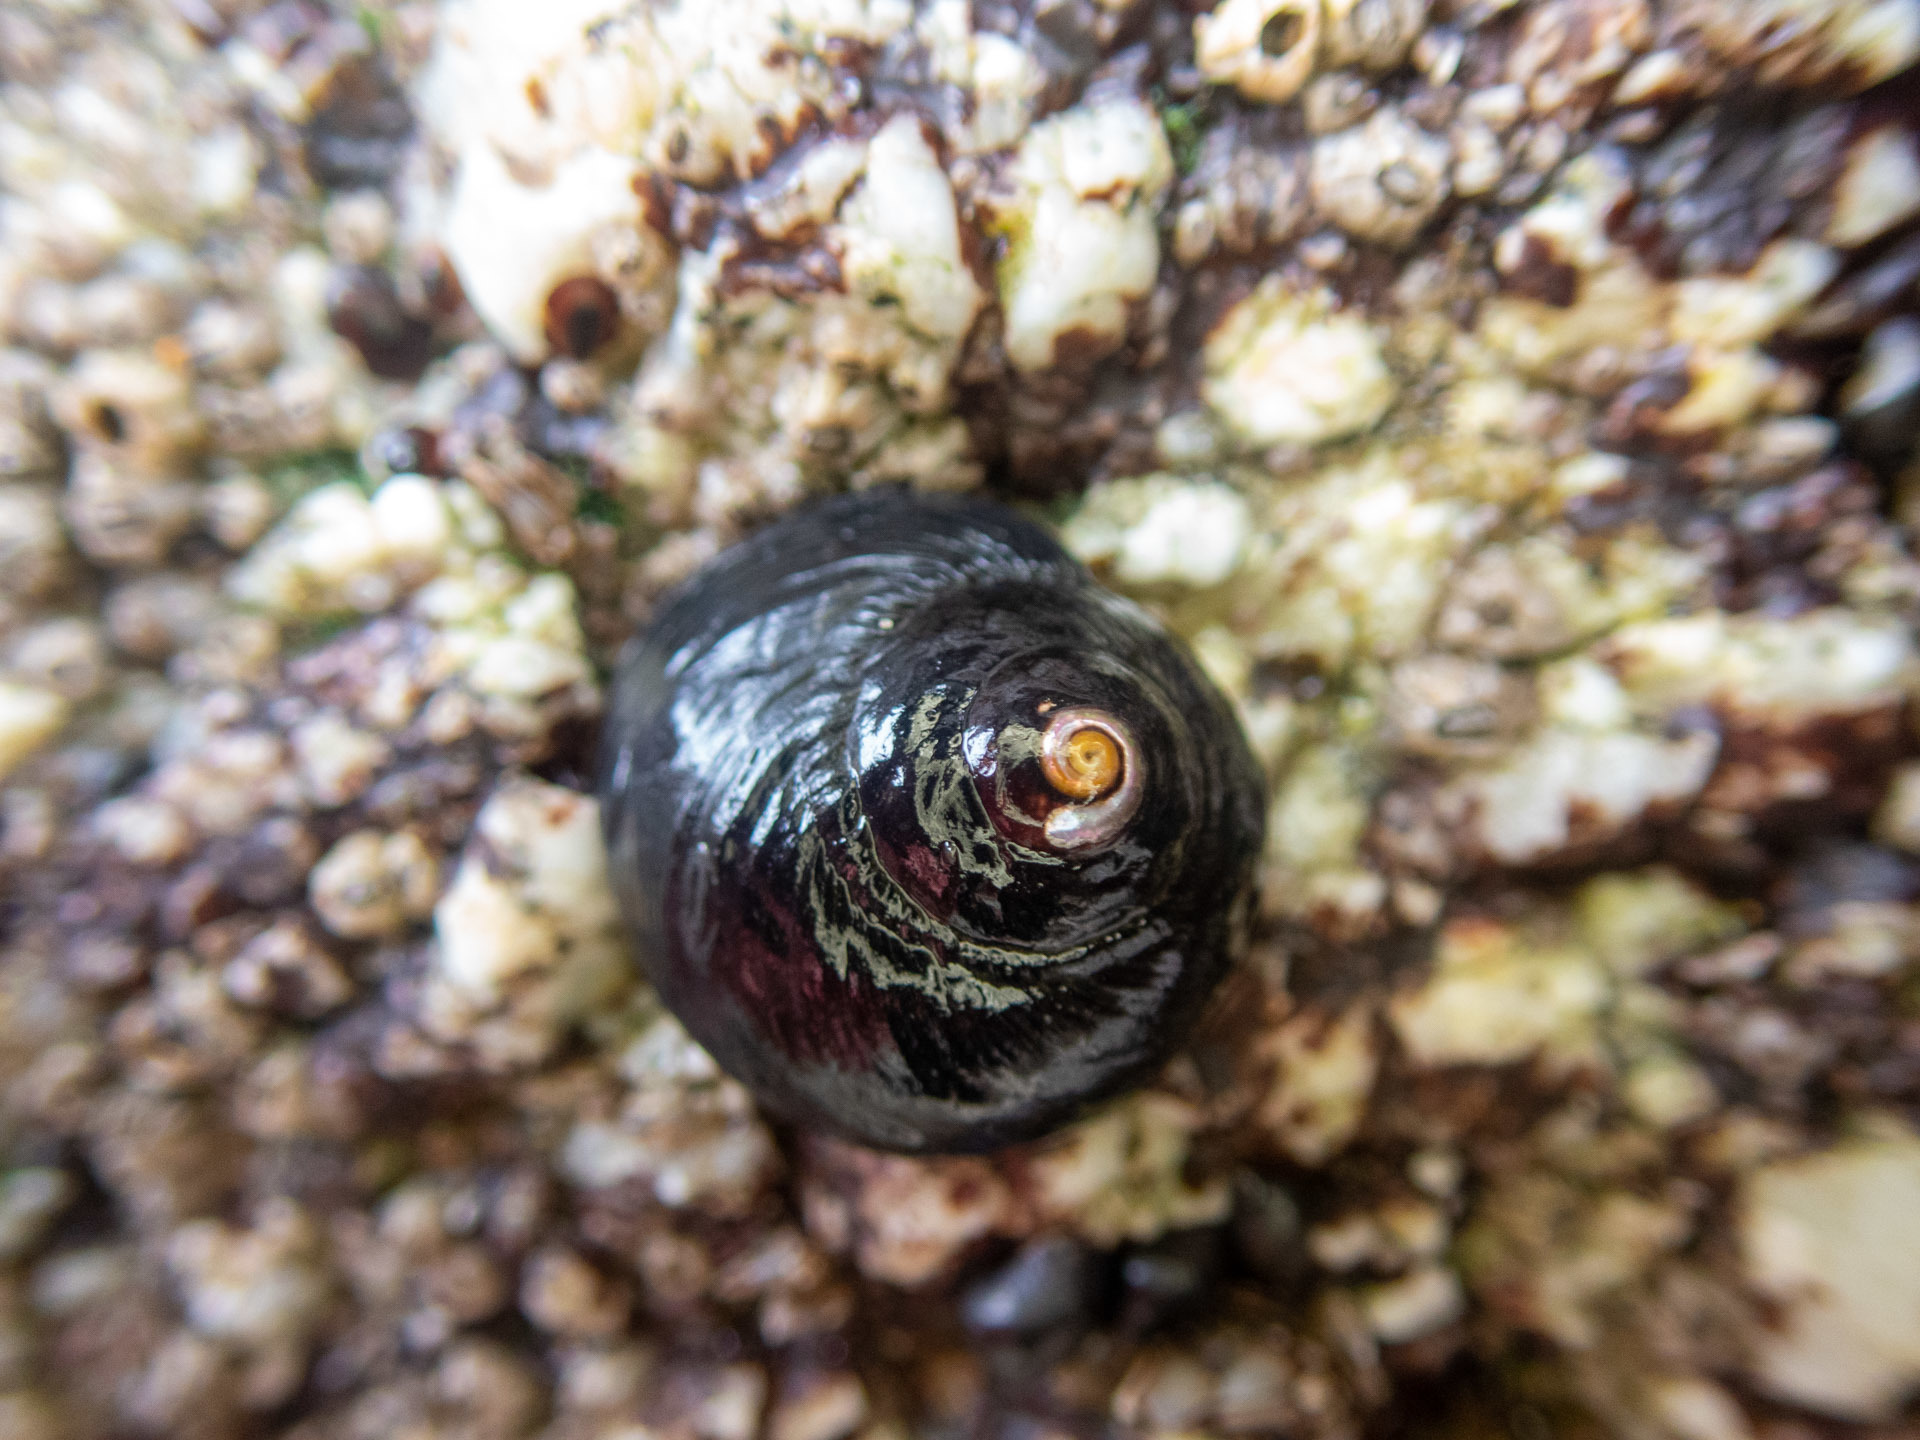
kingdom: Animalia
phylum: Mollusca
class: Gastropoda
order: Trochida
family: Tegulidae
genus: Tegula
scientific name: Tegula funebralis
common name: Black tegula
